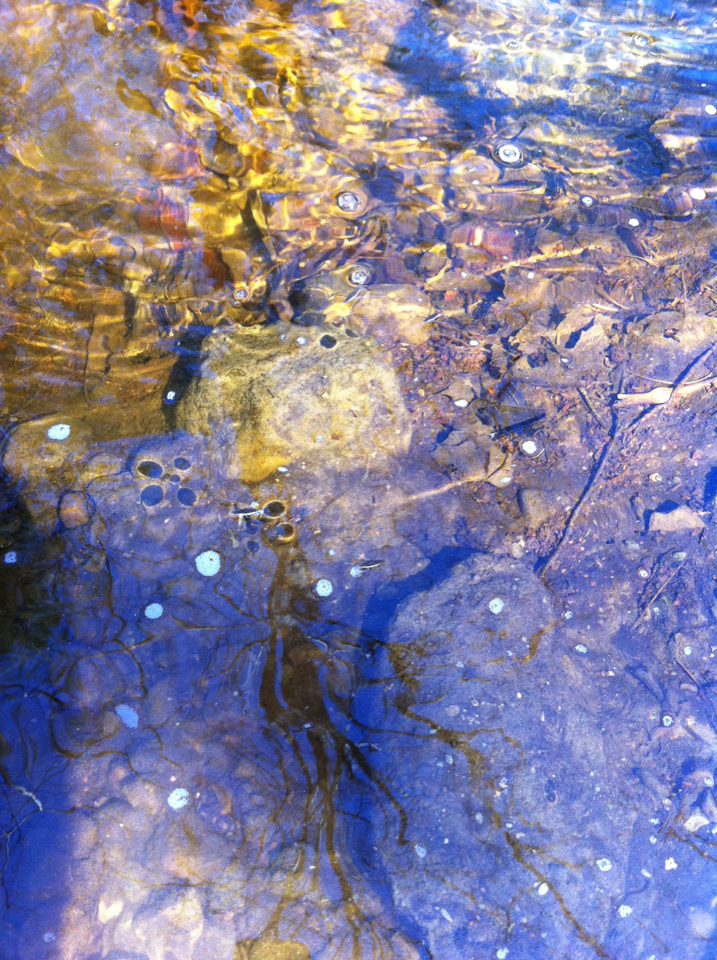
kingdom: Animalia
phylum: Arthropoda
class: Insecta
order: Hemiptera
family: Gerridae
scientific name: Gerridae
